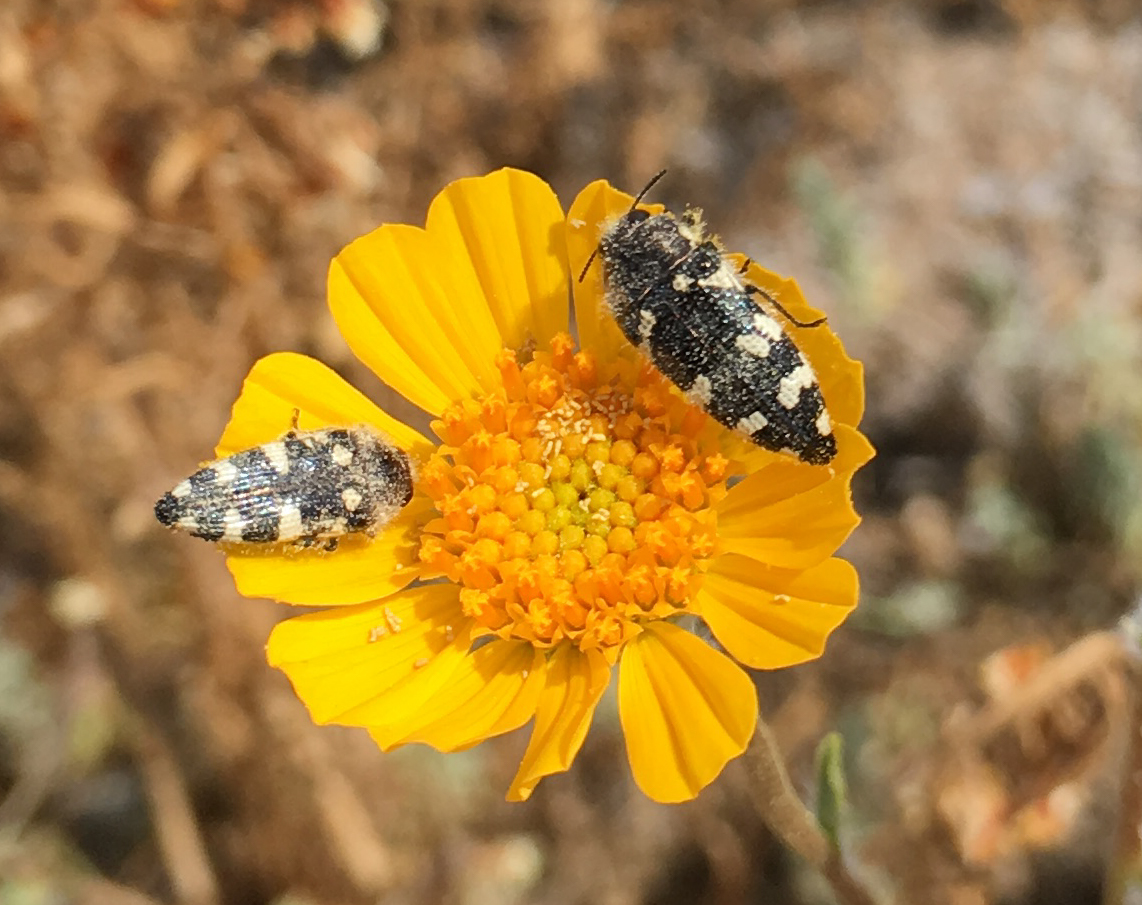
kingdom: Animalia
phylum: Arthropoda
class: Insecta
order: Coleoptera
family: Buprestidae
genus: Acmaeodera
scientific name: Acmaeodera tuta
